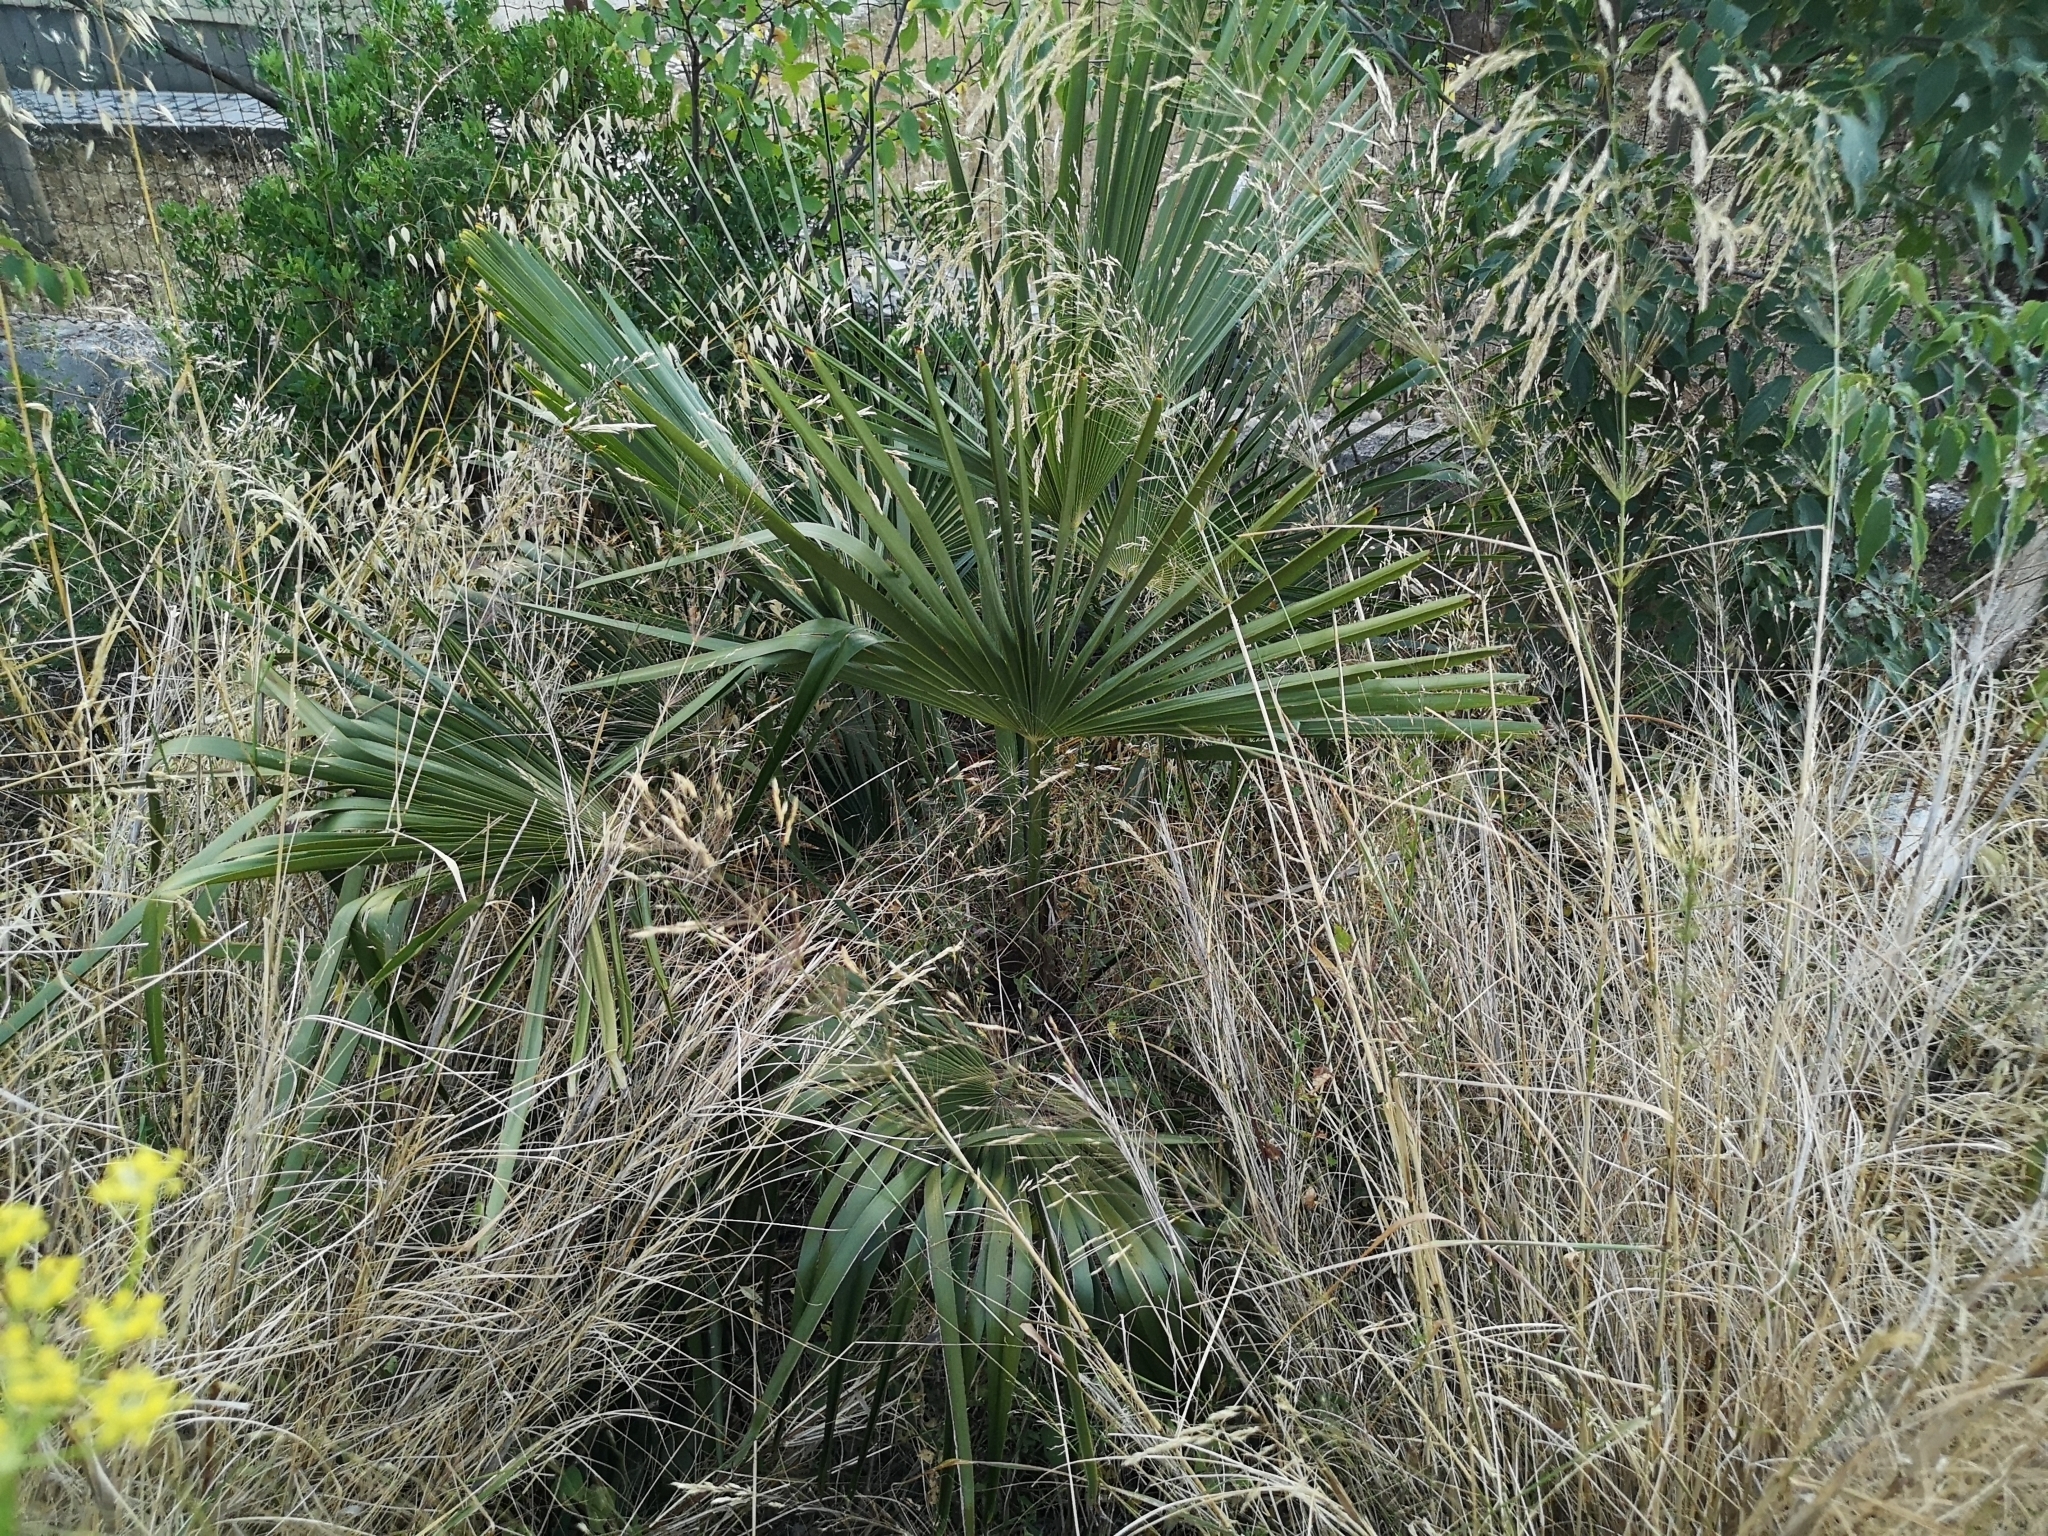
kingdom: Plantae
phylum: Tracheophyta
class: Liliopsida
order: Arecales
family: Arecaceae
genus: Trachycarpus
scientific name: Trachycarpus fortunei
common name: Chusan palm
